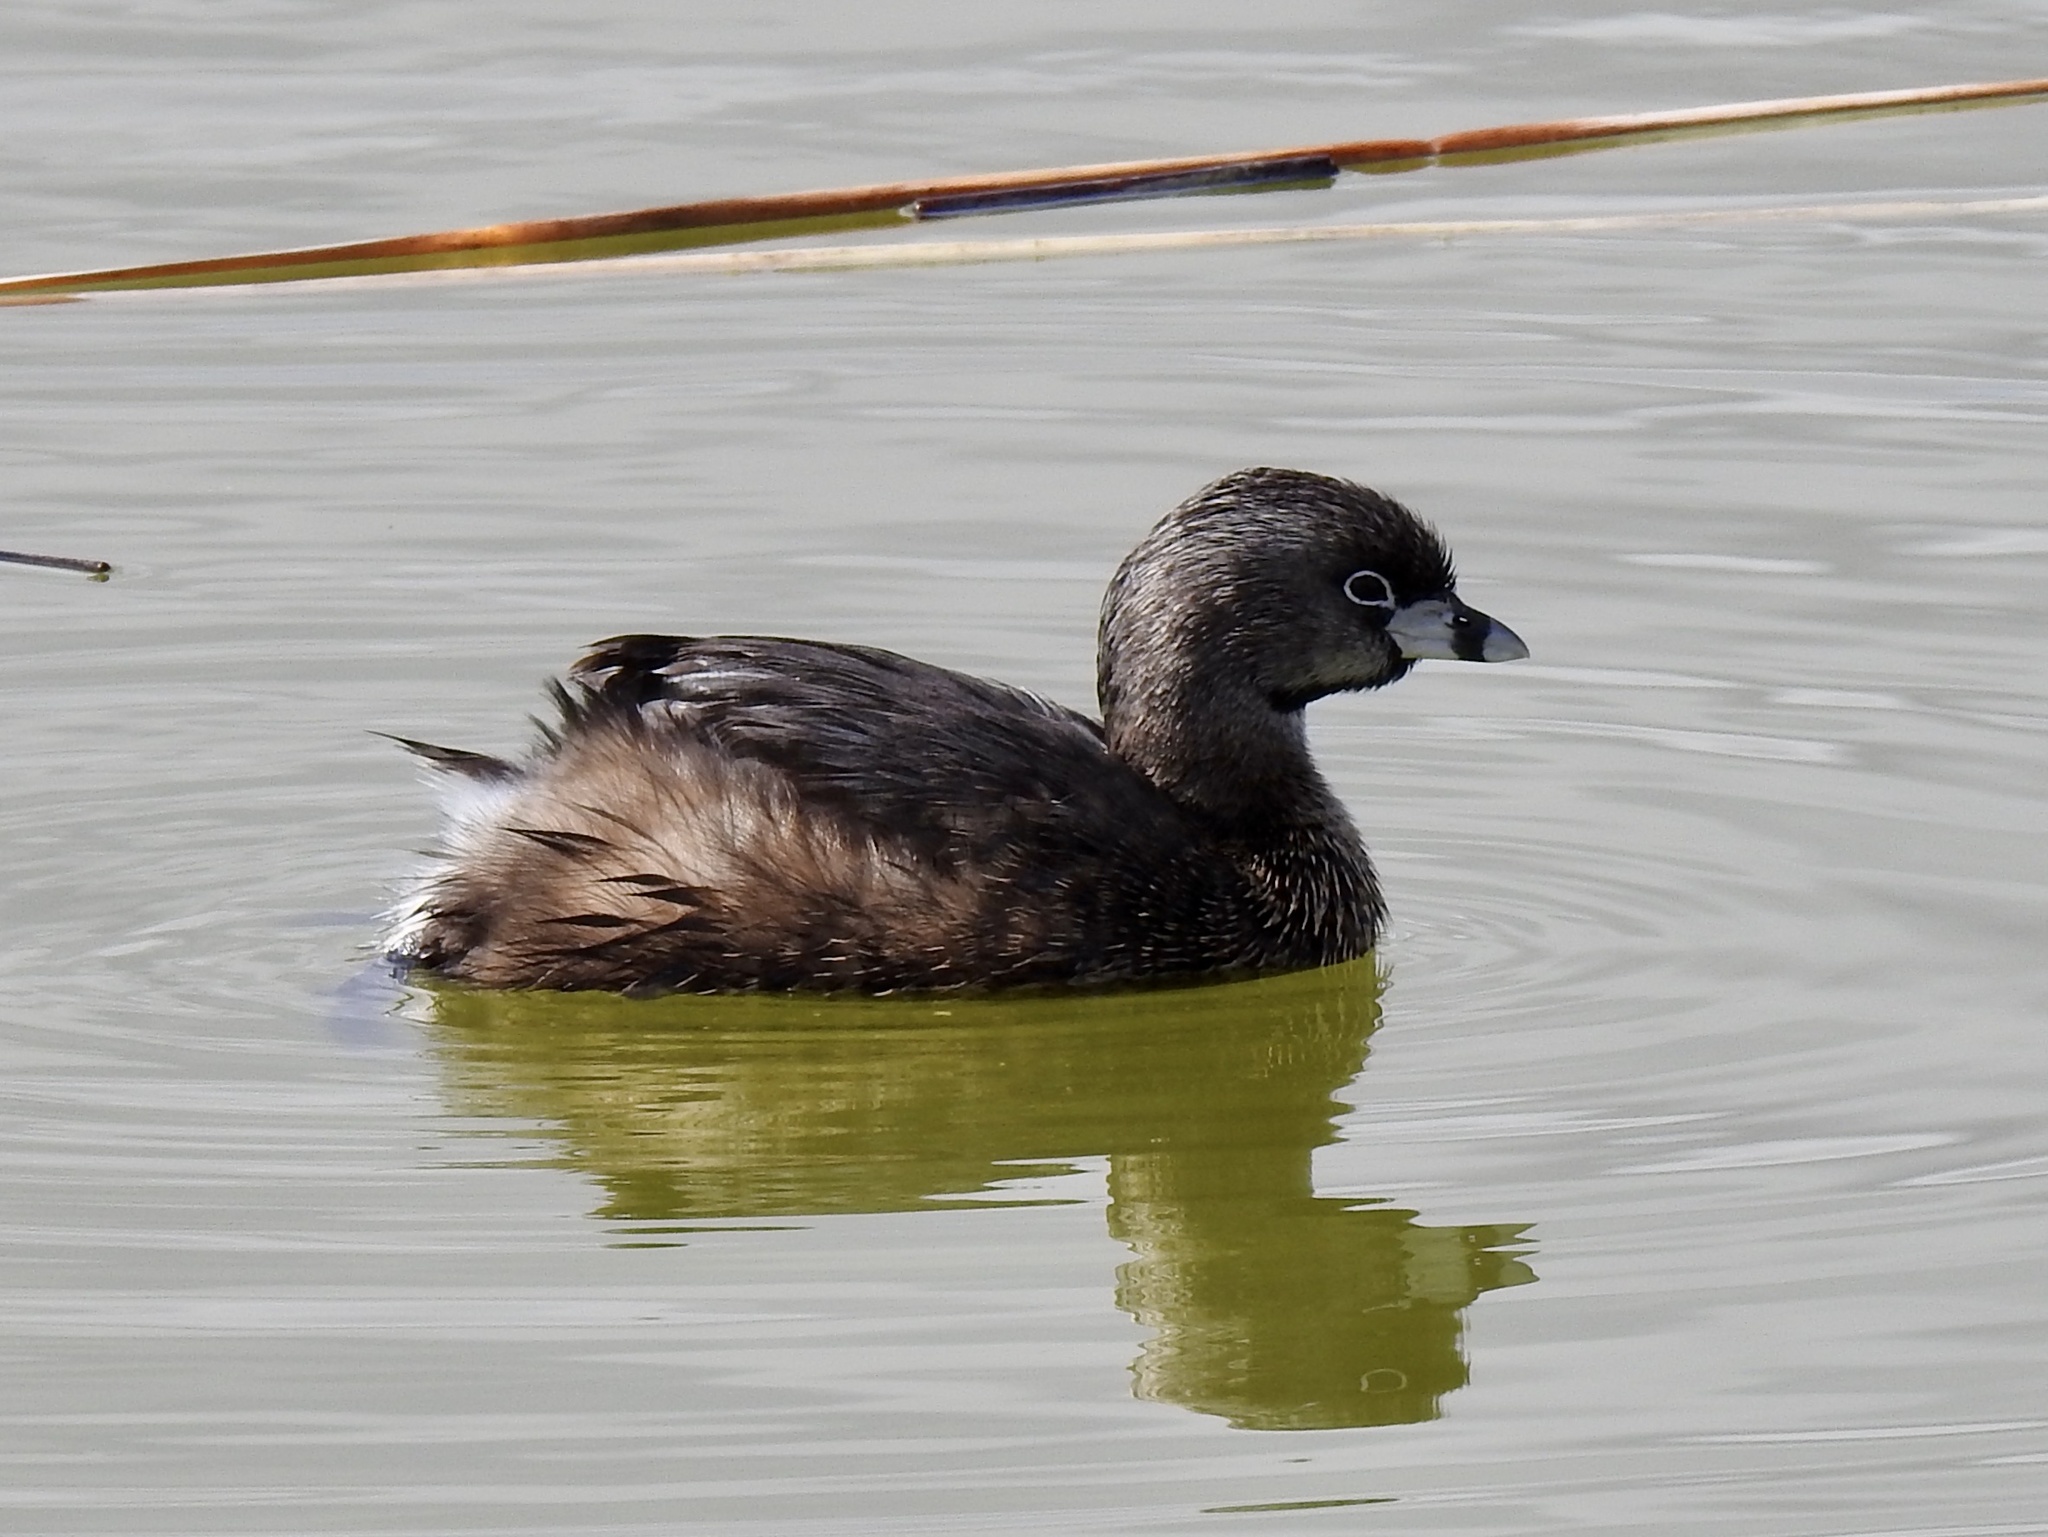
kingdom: Animalia
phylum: Chordata
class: Aves
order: Podicipediformes
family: Podicipedidae
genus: Podilymbus
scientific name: Podilymbus podiceps
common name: Pied-billed grebe
